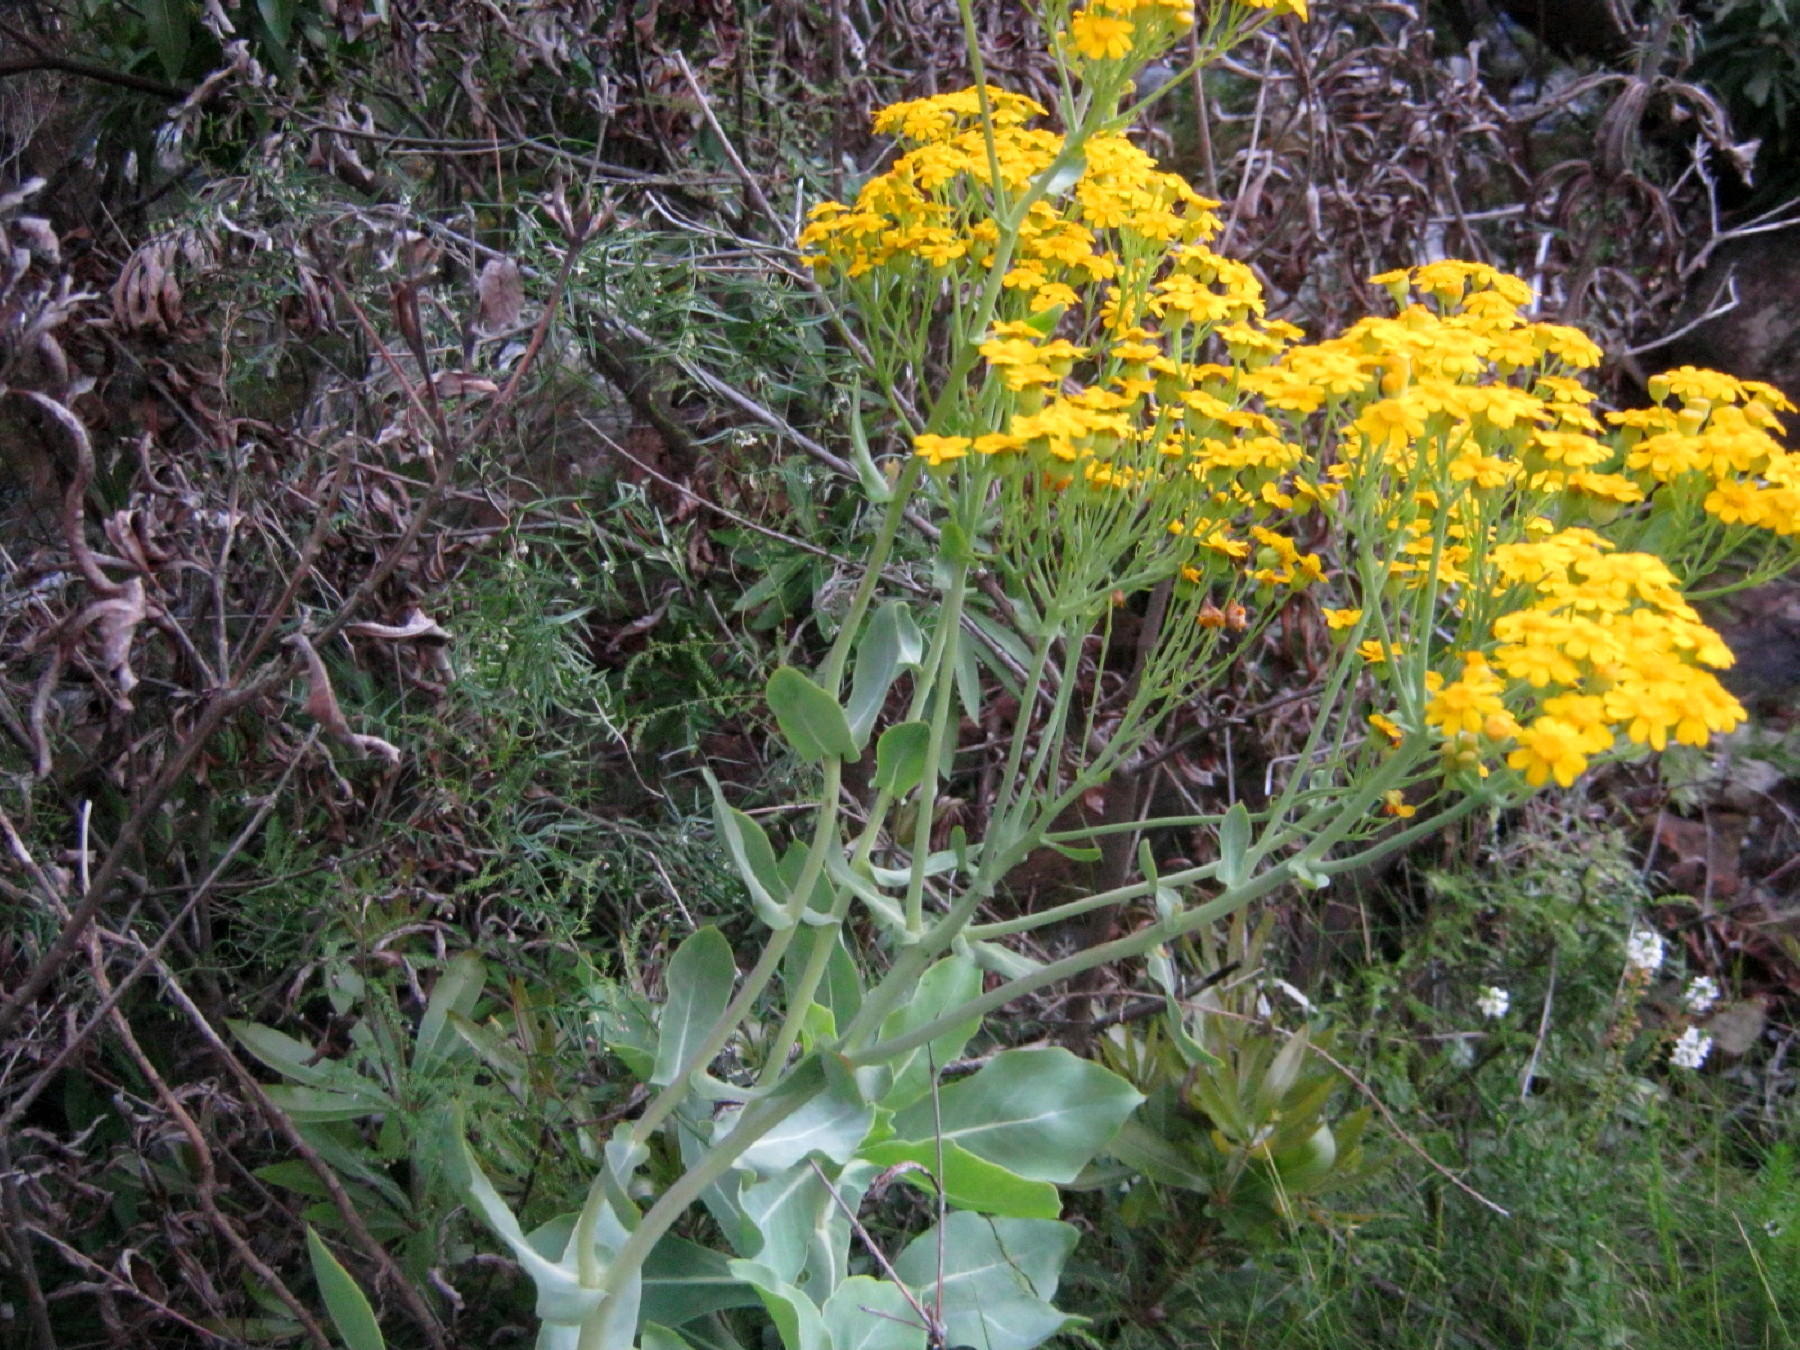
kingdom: Plantae
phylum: Tracheophyta
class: Magnoliopsida
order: Asterales
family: Asteraceae
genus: Othonna
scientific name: Othonna parviflora
